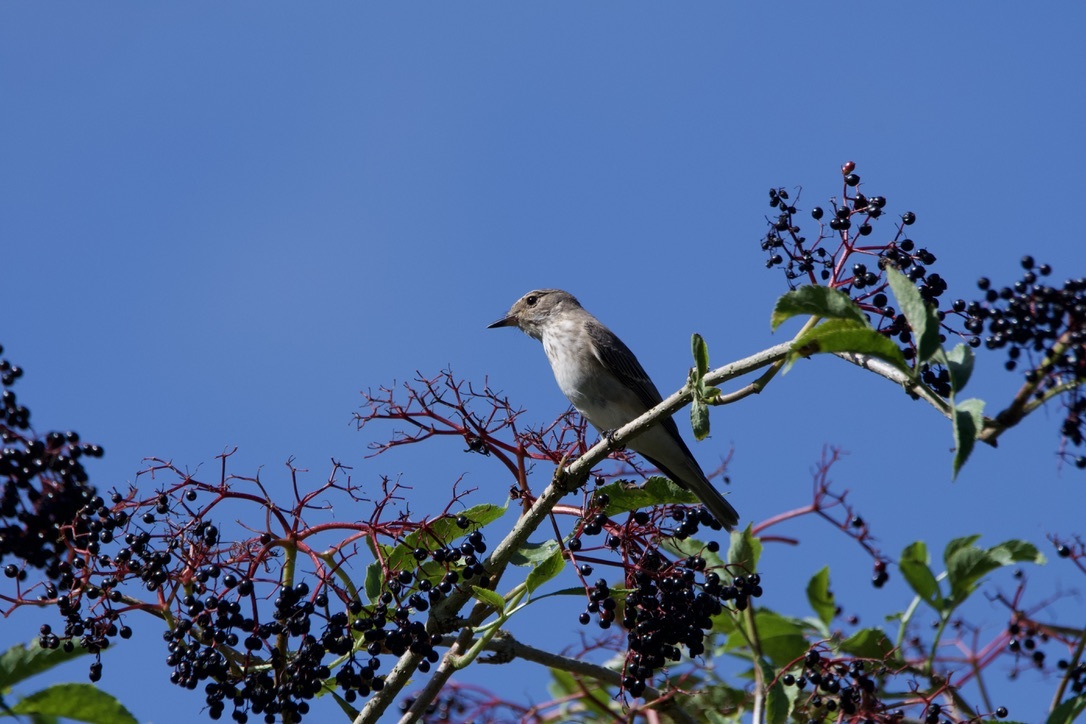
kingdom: Animalia
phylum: Chordata
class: Aves
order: Passeriformes
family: Muscicapidae
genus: Muscicapa
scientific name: Muscicapa striata
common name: Spotted flycatcher
